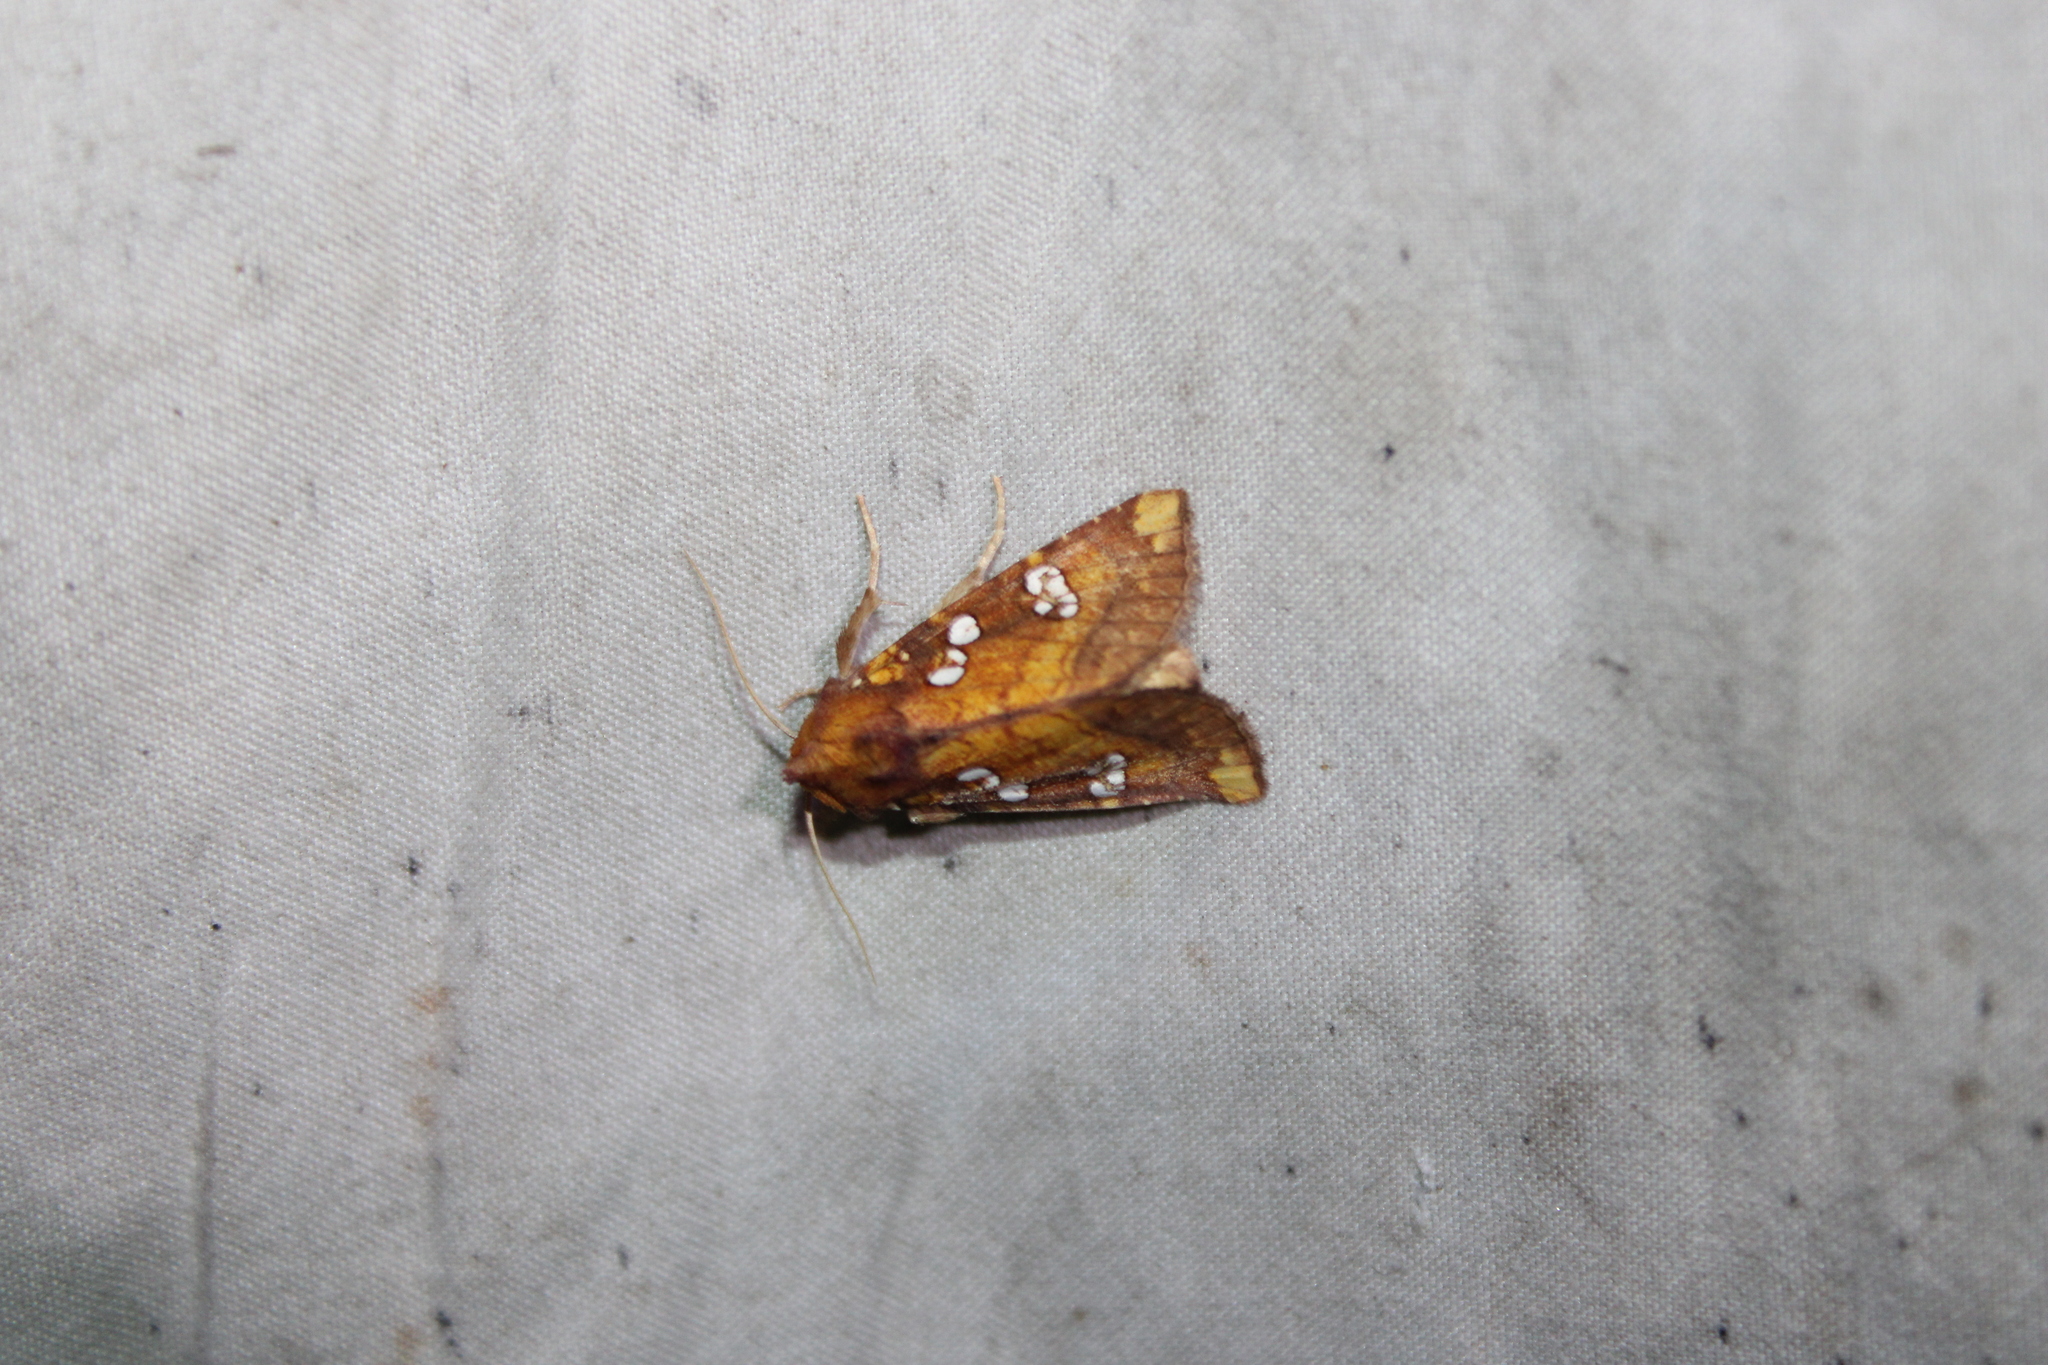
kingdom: Animalia
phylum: Arthropoda
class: Insecta
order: Lepidoptera
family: Noctuidae
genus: Papaipema
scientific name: Papaipema baptisiae
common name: Wild indigo borer moth
